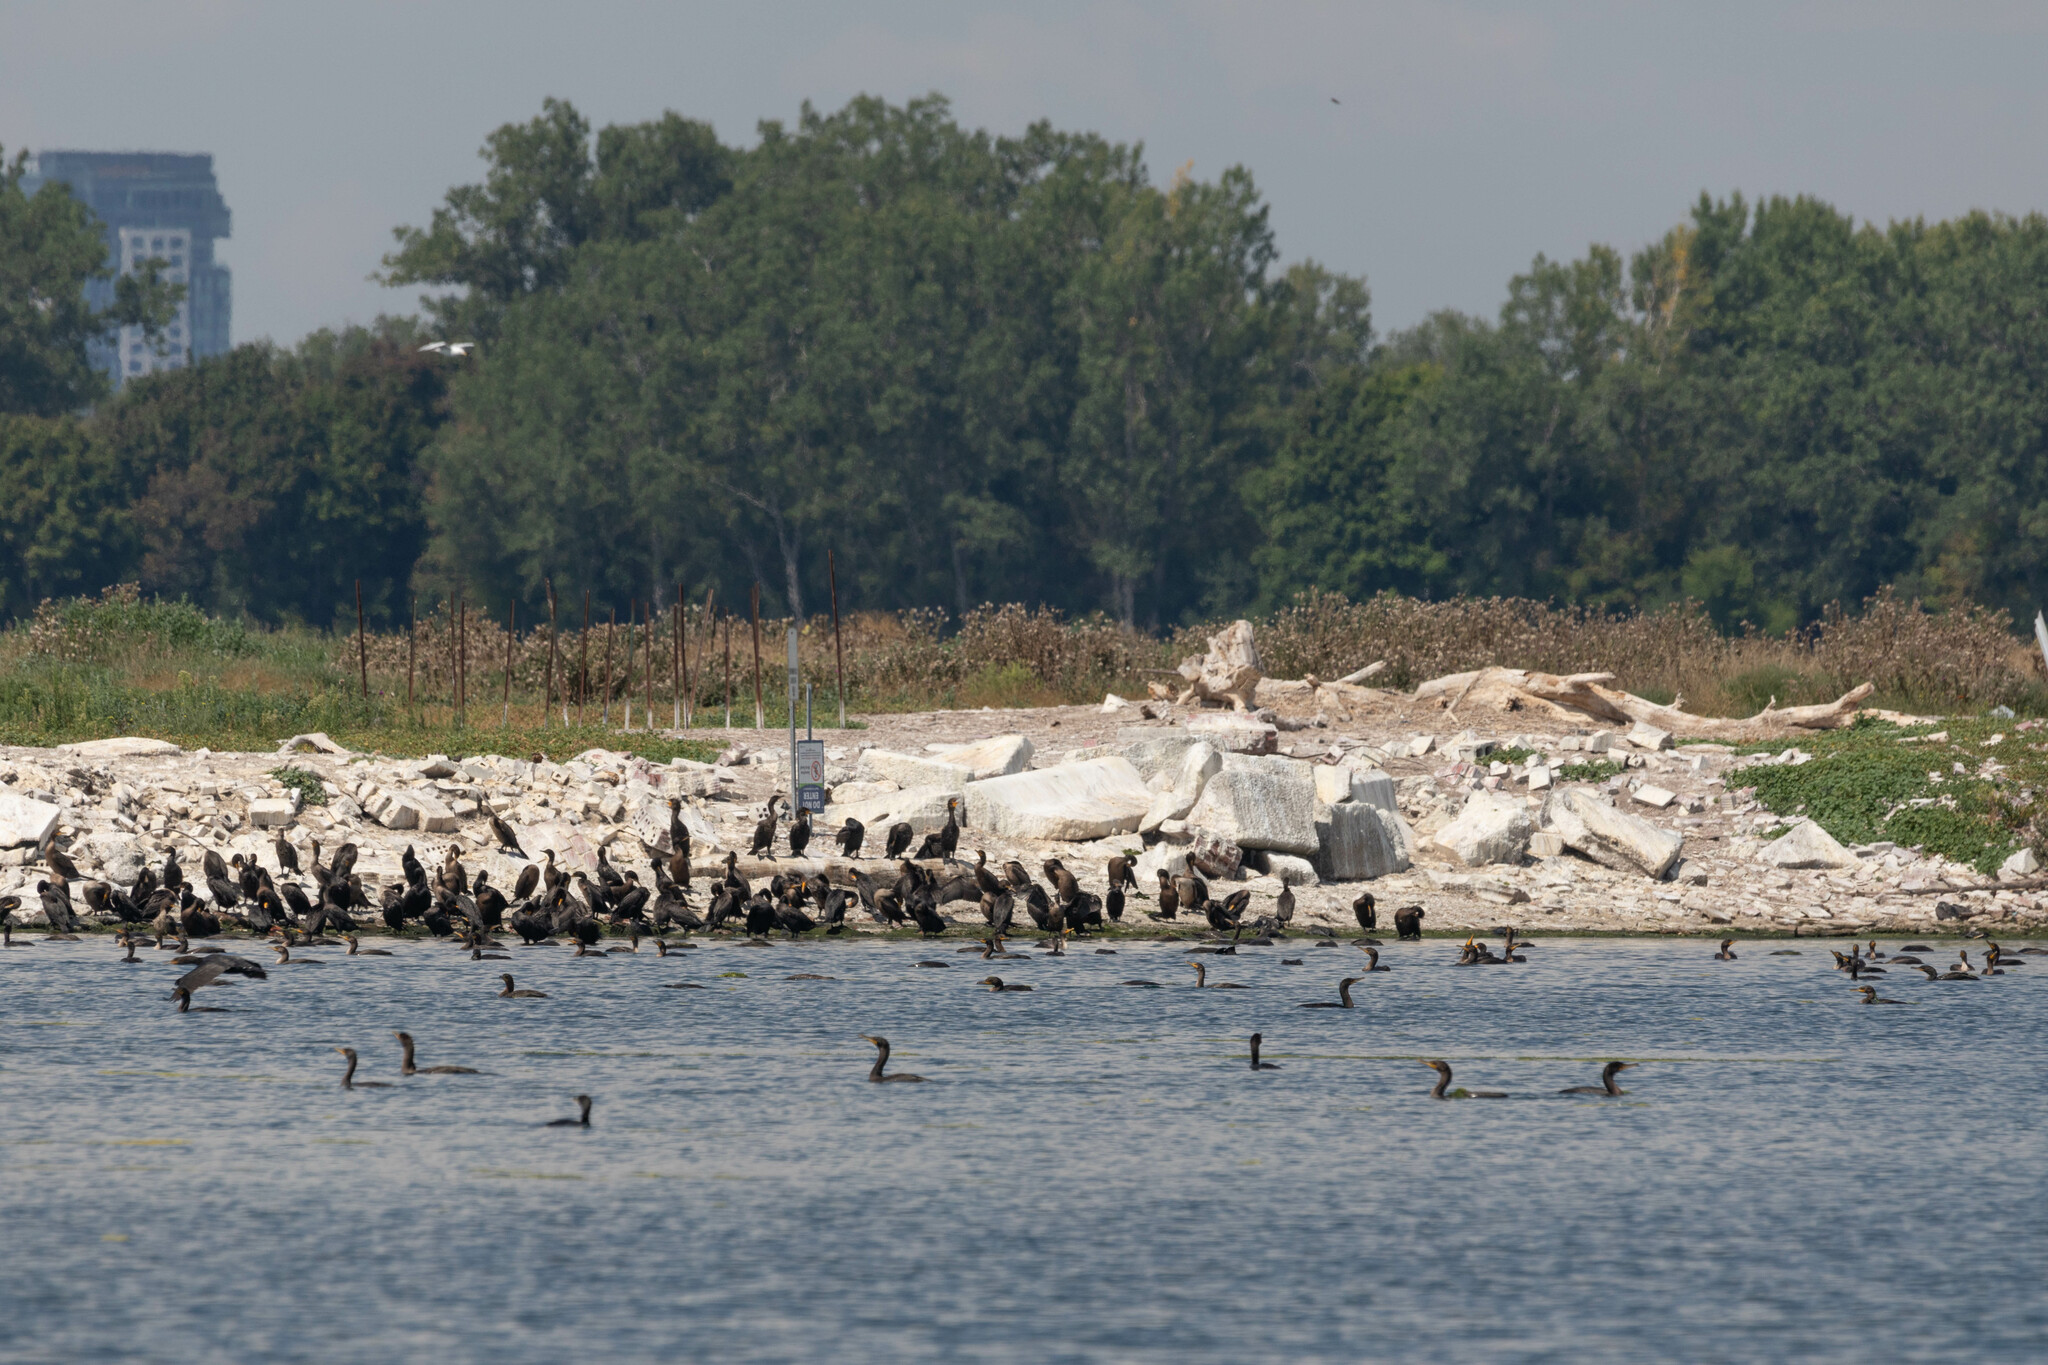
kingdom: Animalia
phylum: Chordata
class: Aves
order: Suliformes
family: Phalacrocoracidae
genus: Phalacrocorax
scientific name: Phalacrocorax auritus
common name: Double-crested cormorant
